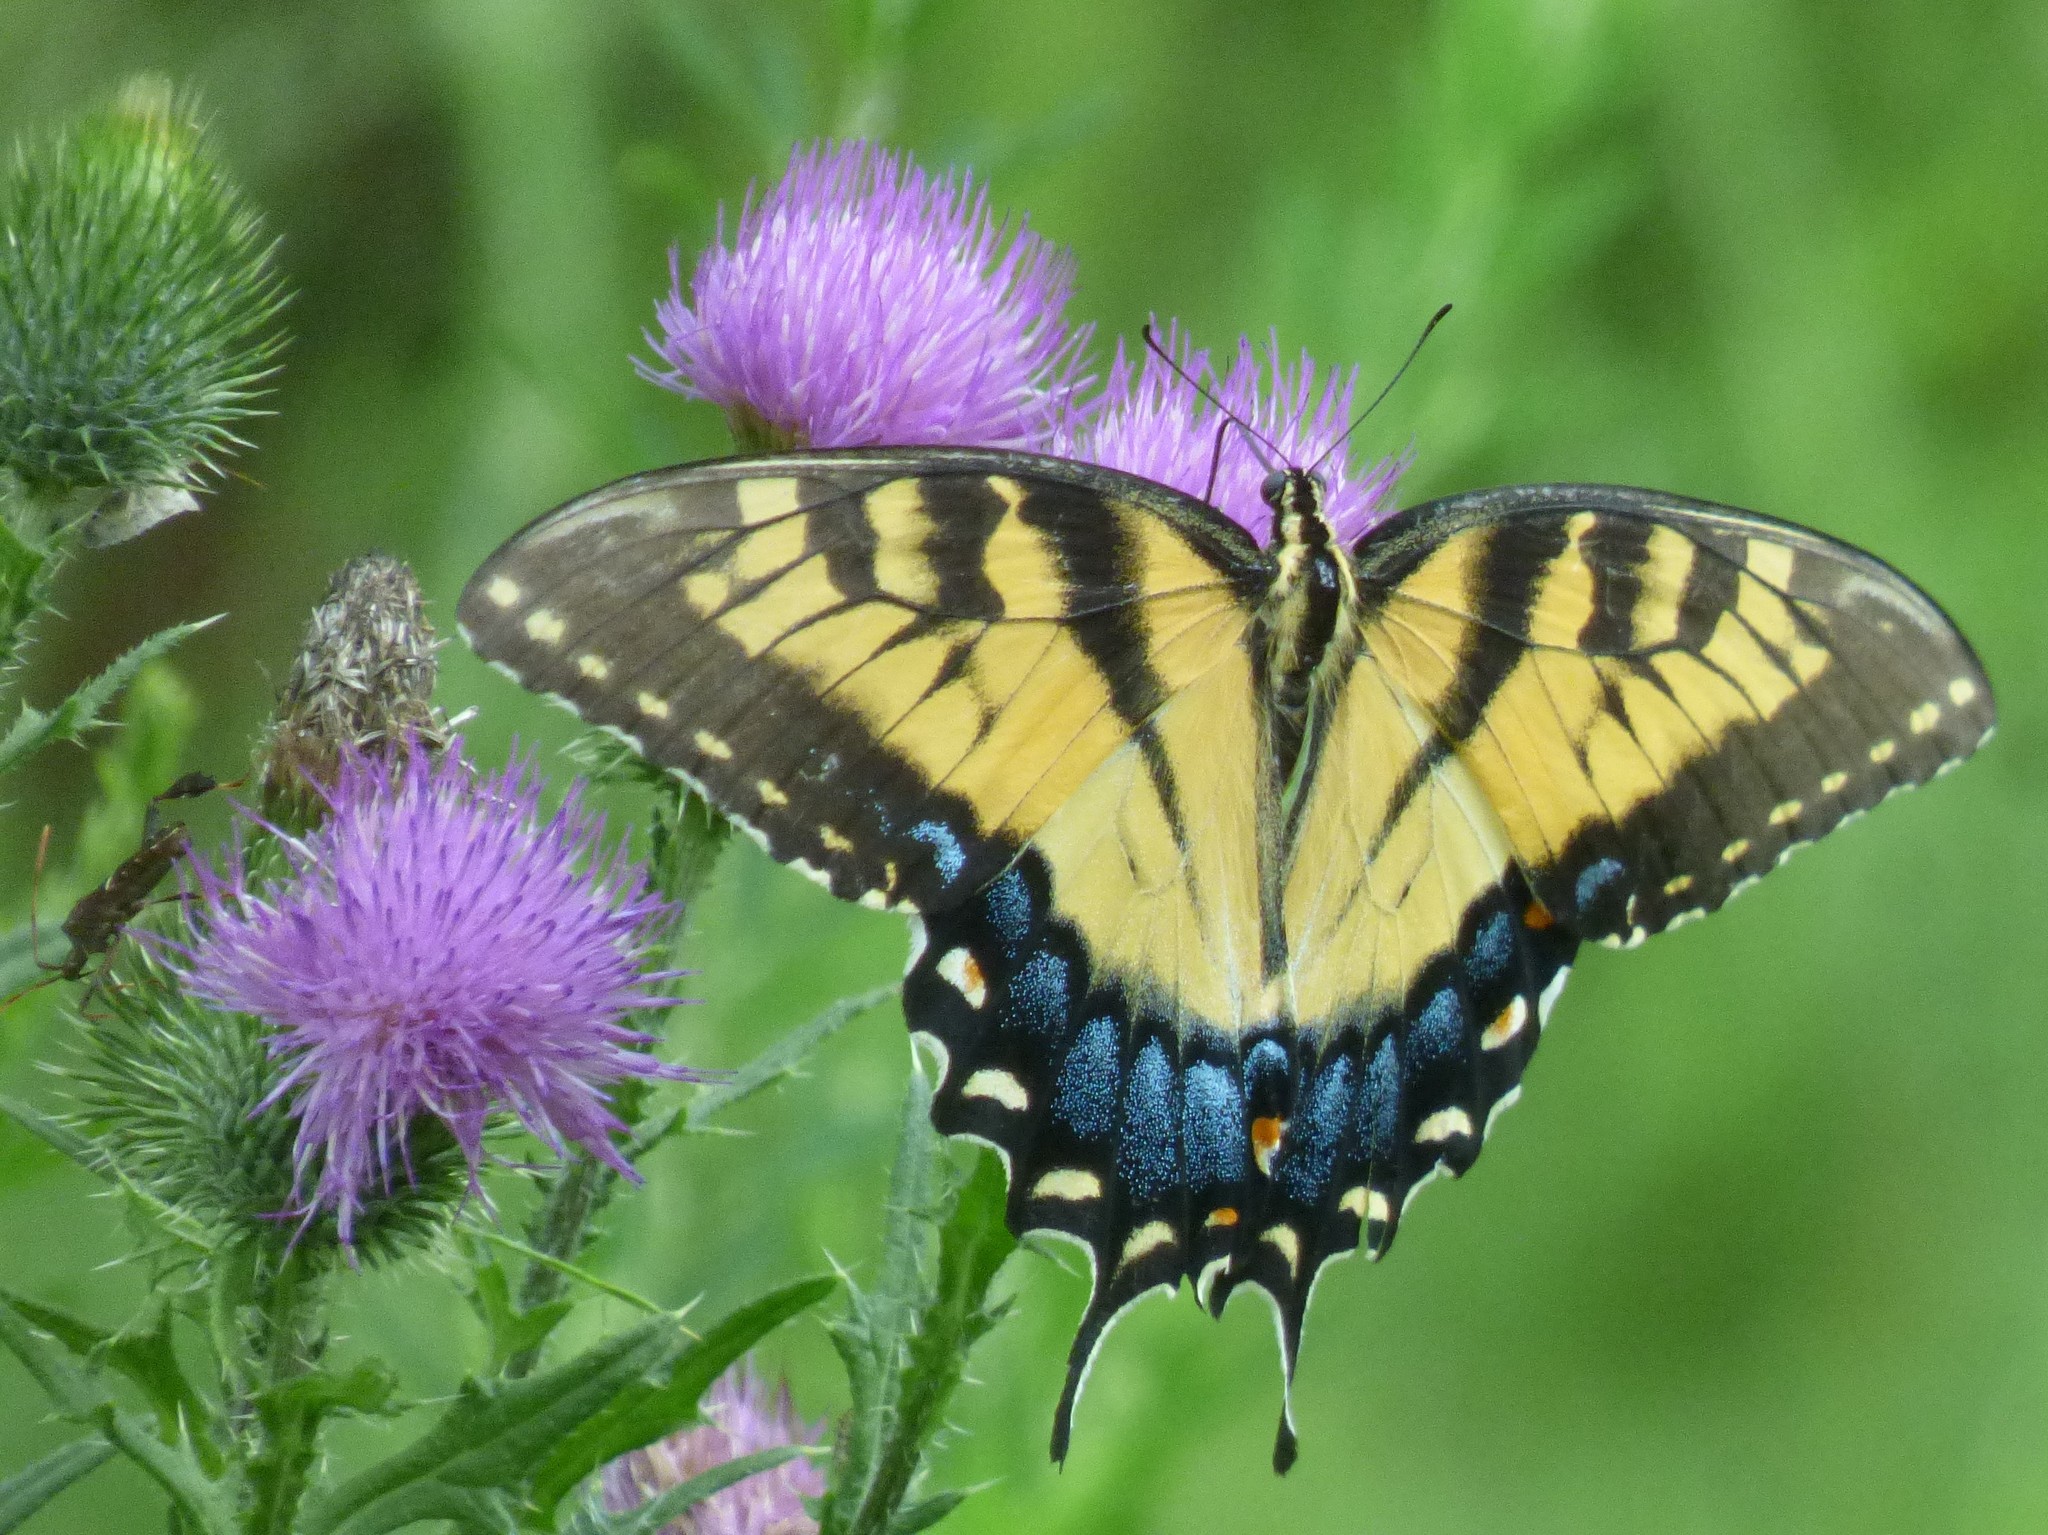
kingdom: Animalia
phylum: Arthropoda
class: Insecta
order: Lepidoptera
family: Papilionidae
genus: Papilio
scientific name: Papilio glaucus
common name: Tiger swallowtail
